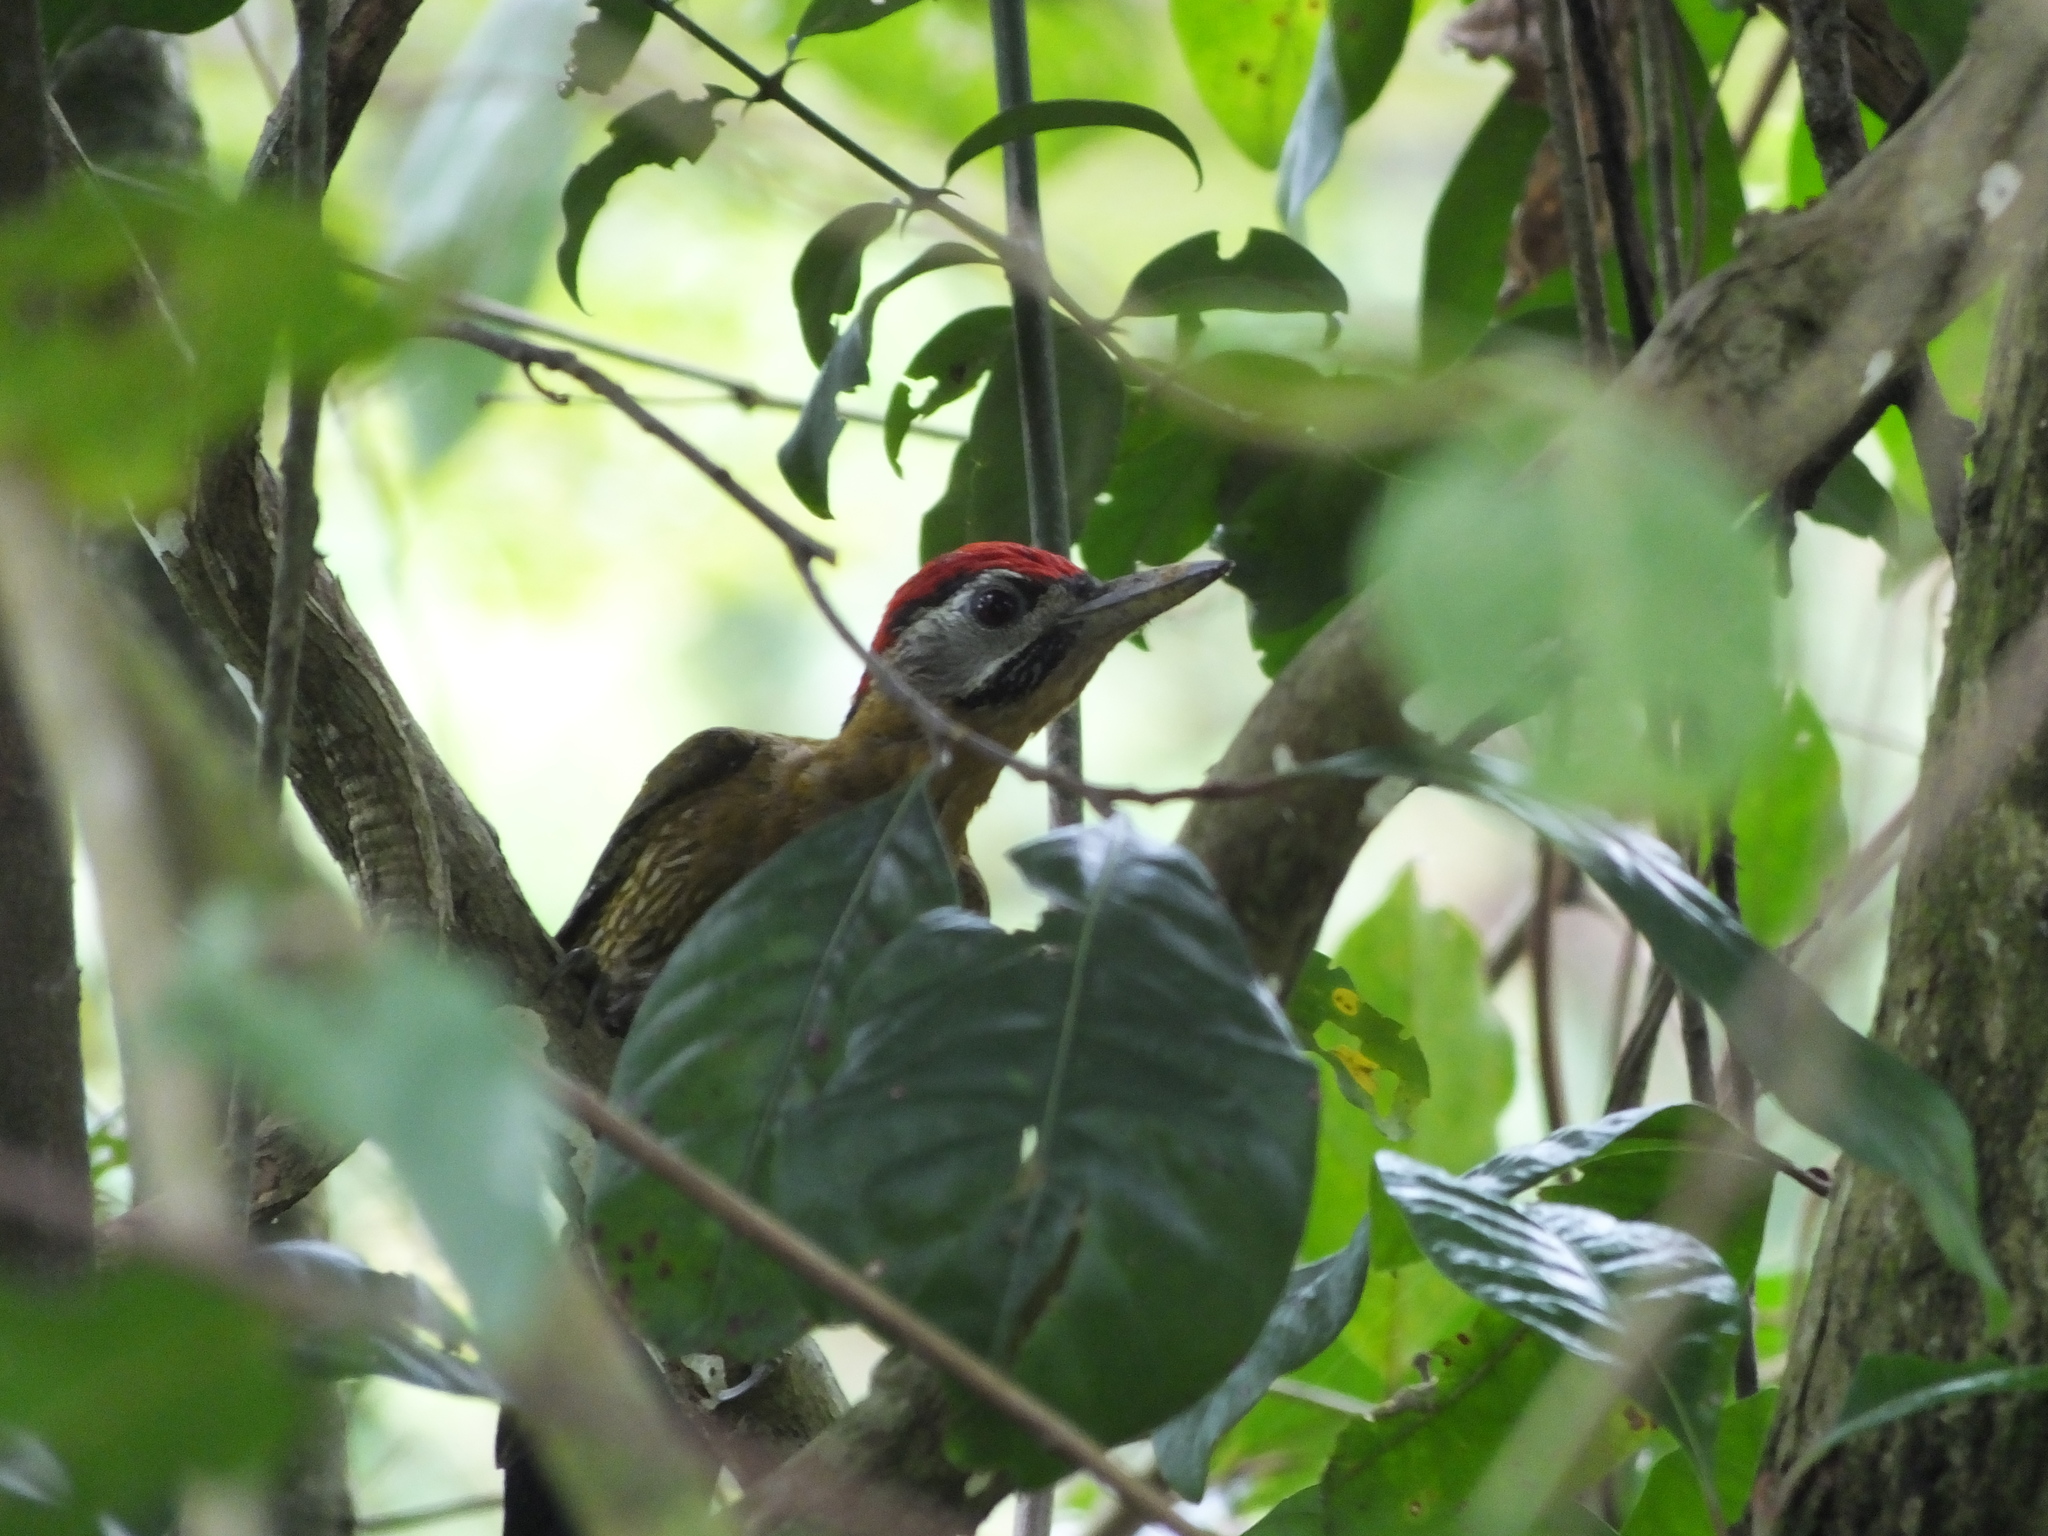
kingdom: Animalia
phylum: Chordata
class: Aves
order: Piciformes
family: Picidae
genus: Picus
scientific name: Picus vittatus
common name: Laced woodpecker
